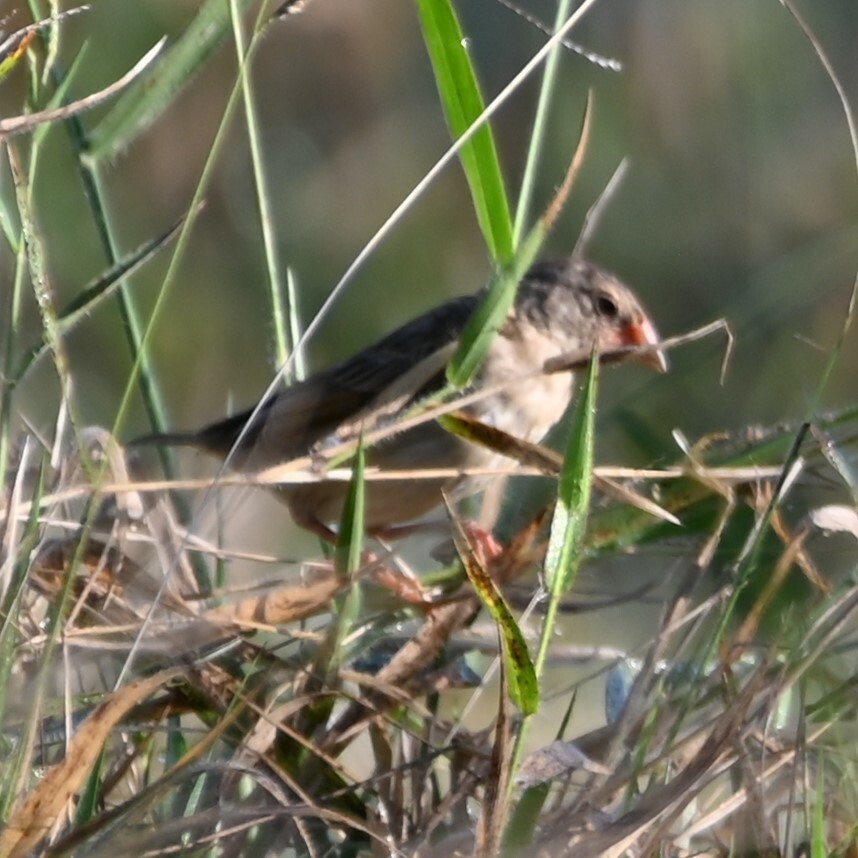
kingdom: Animalia
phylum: Chordata
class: Aves
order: Passeriformes
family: Ploceidae
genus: Quelea
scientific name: Quelea quelea
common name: Red-billed quelea
